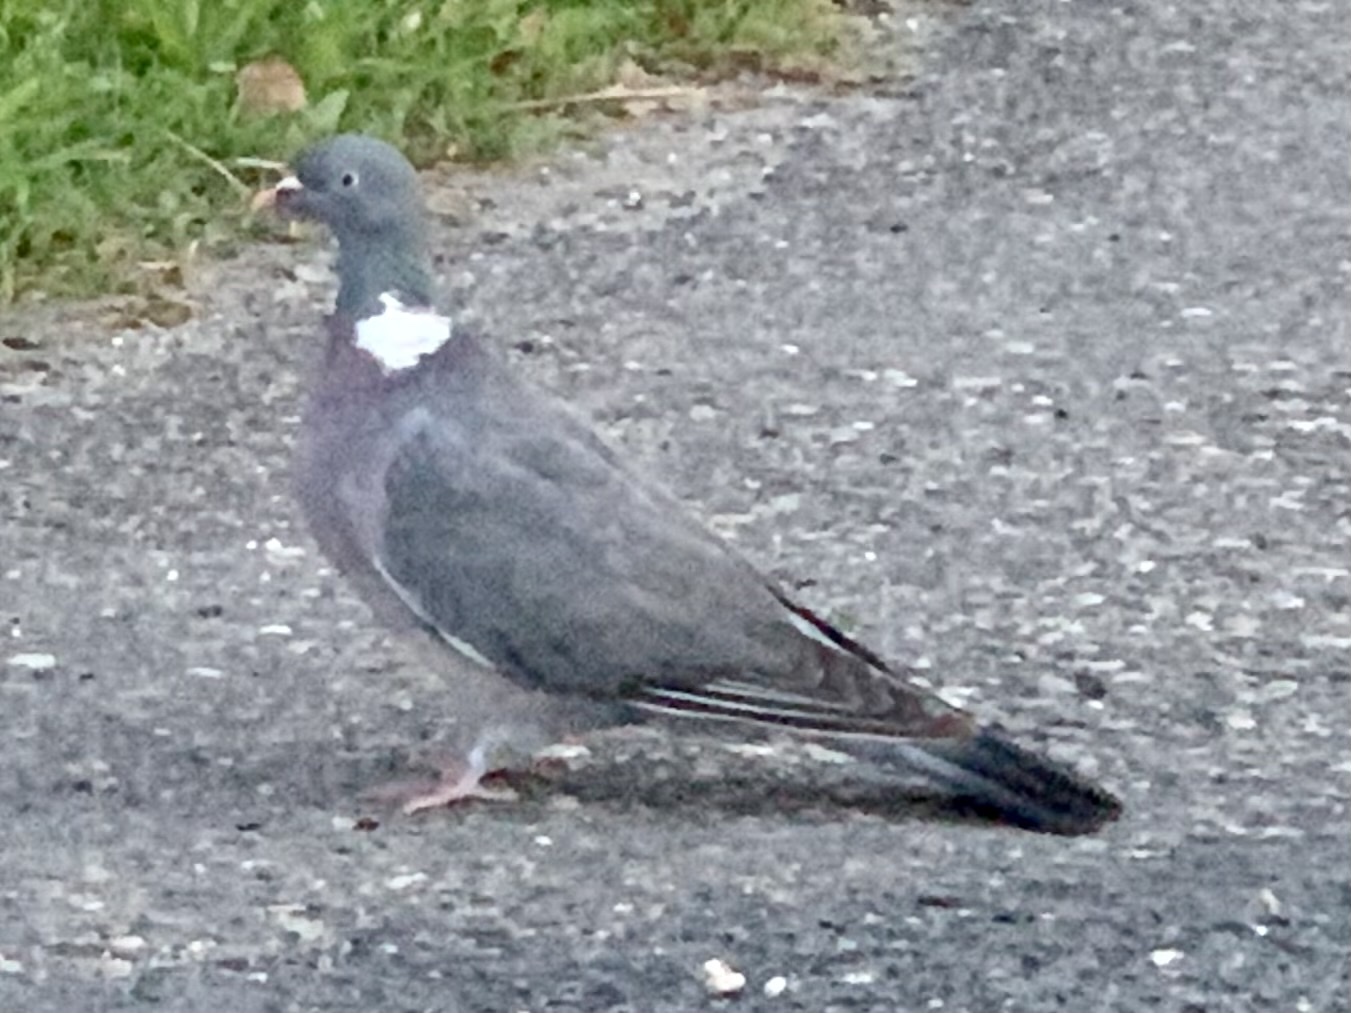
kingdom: Animalia
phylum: Chordata
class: Aves
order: Columbiformes
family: Columbidae
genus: Columba
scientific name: Columba palumbus
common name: Common wood pigeon
